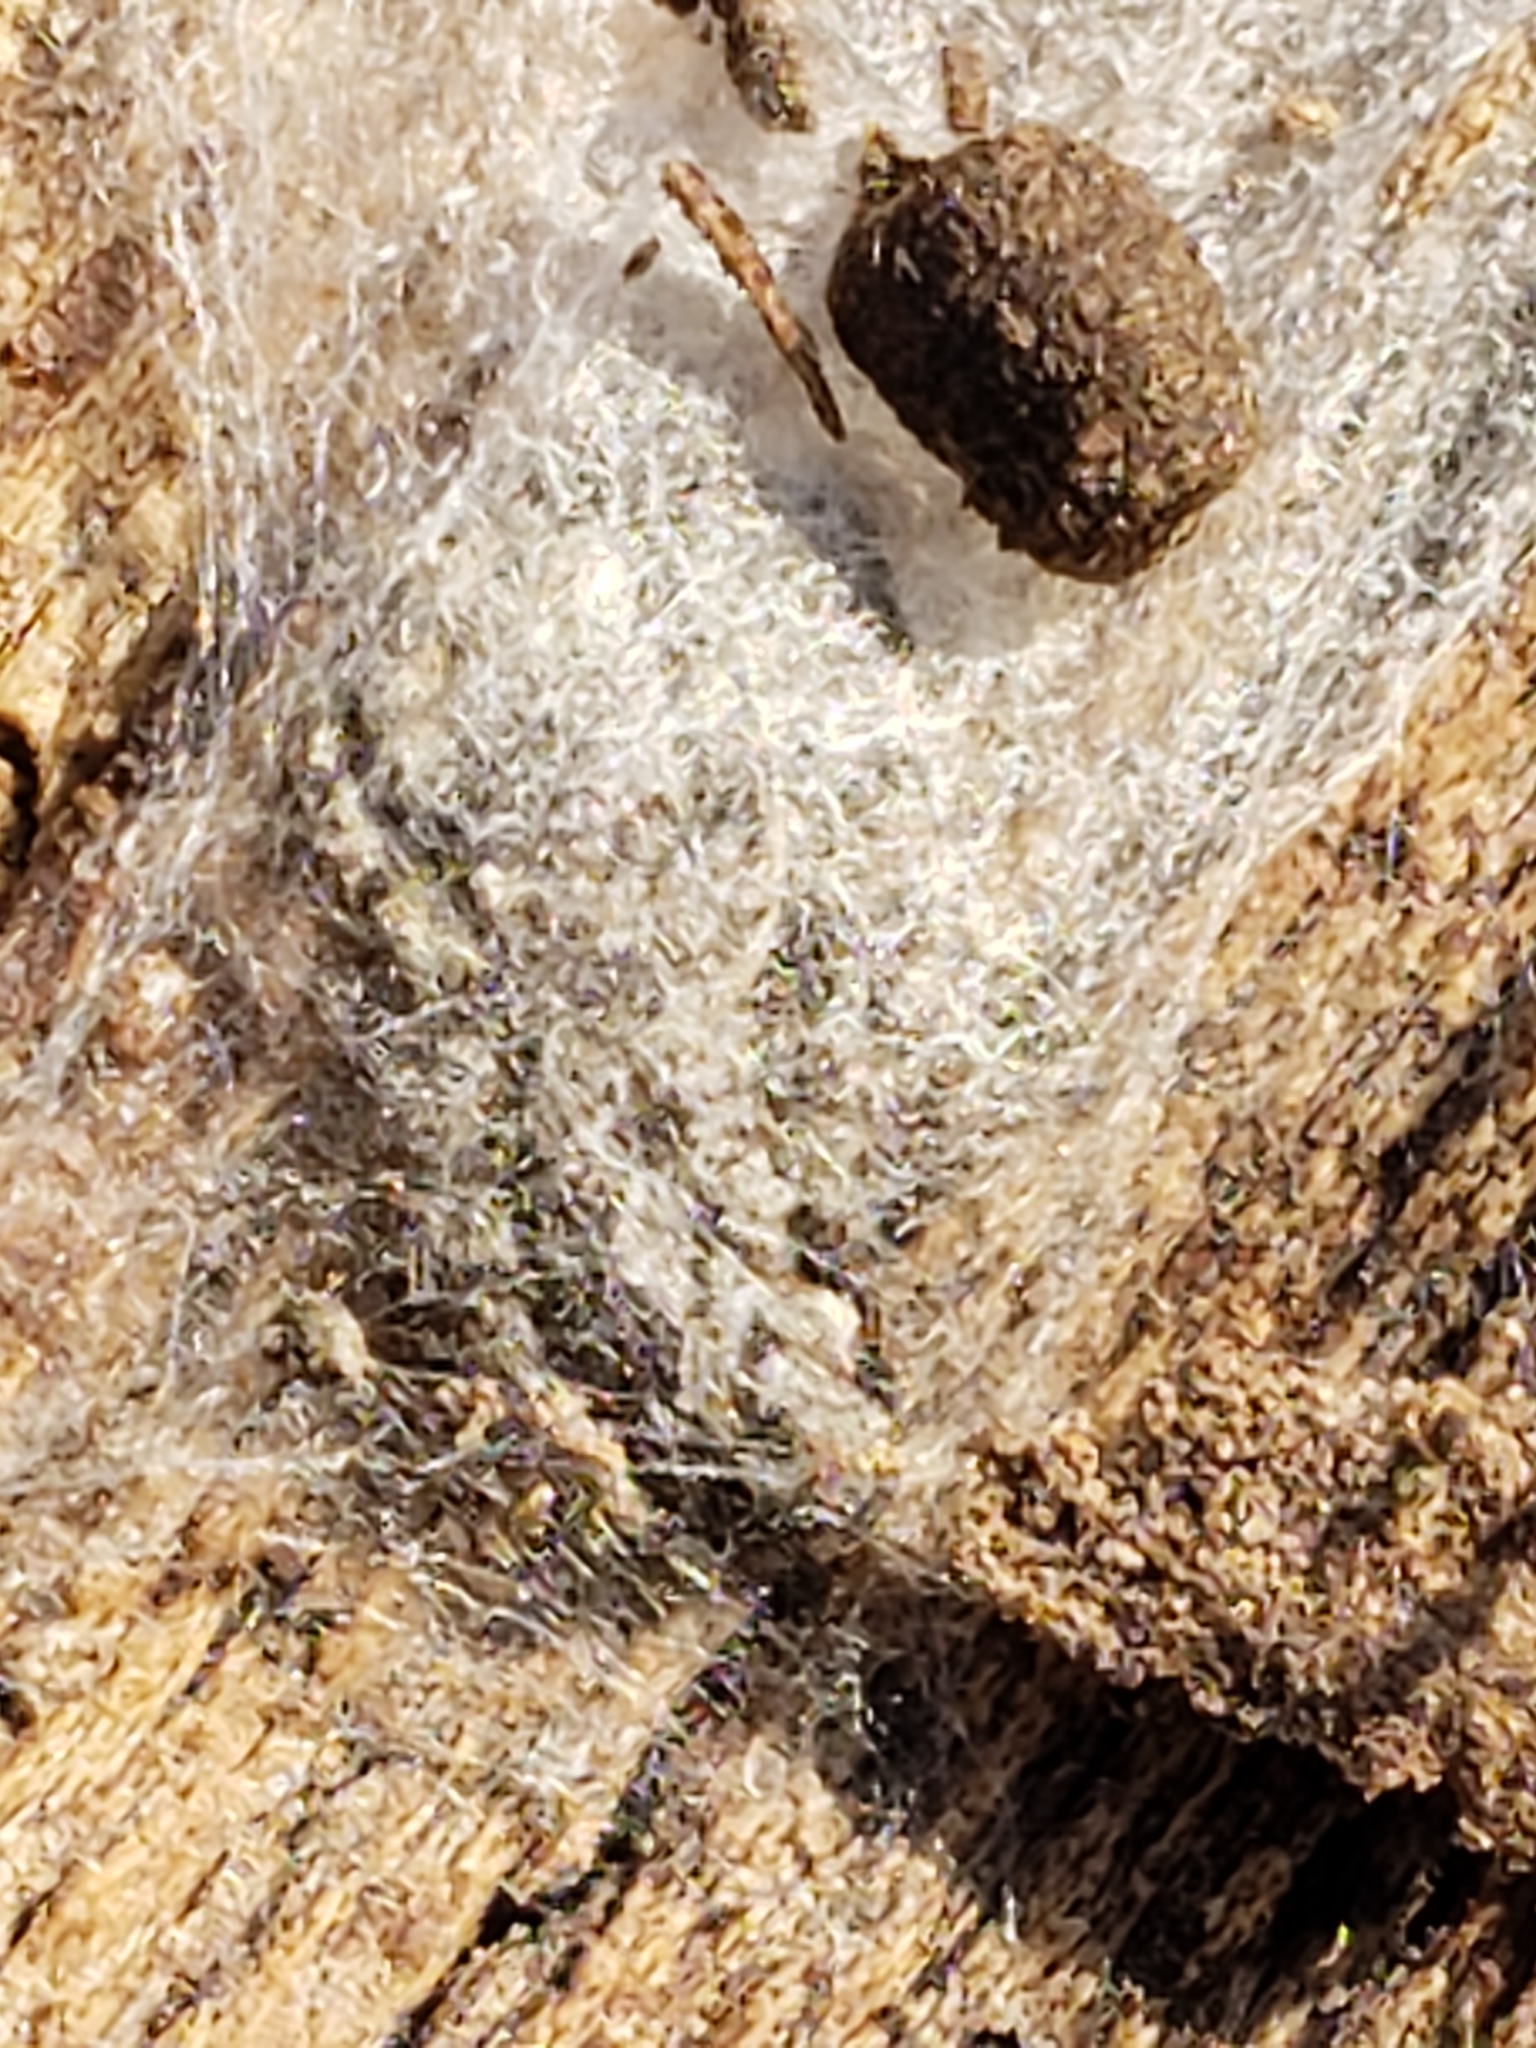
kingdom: Animalia
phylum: Arthropoda
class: Arachnida
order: Araneae
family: Salticidae
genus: Platycryptus
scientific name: Platycryptus undatus
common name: Tan jumping spider
